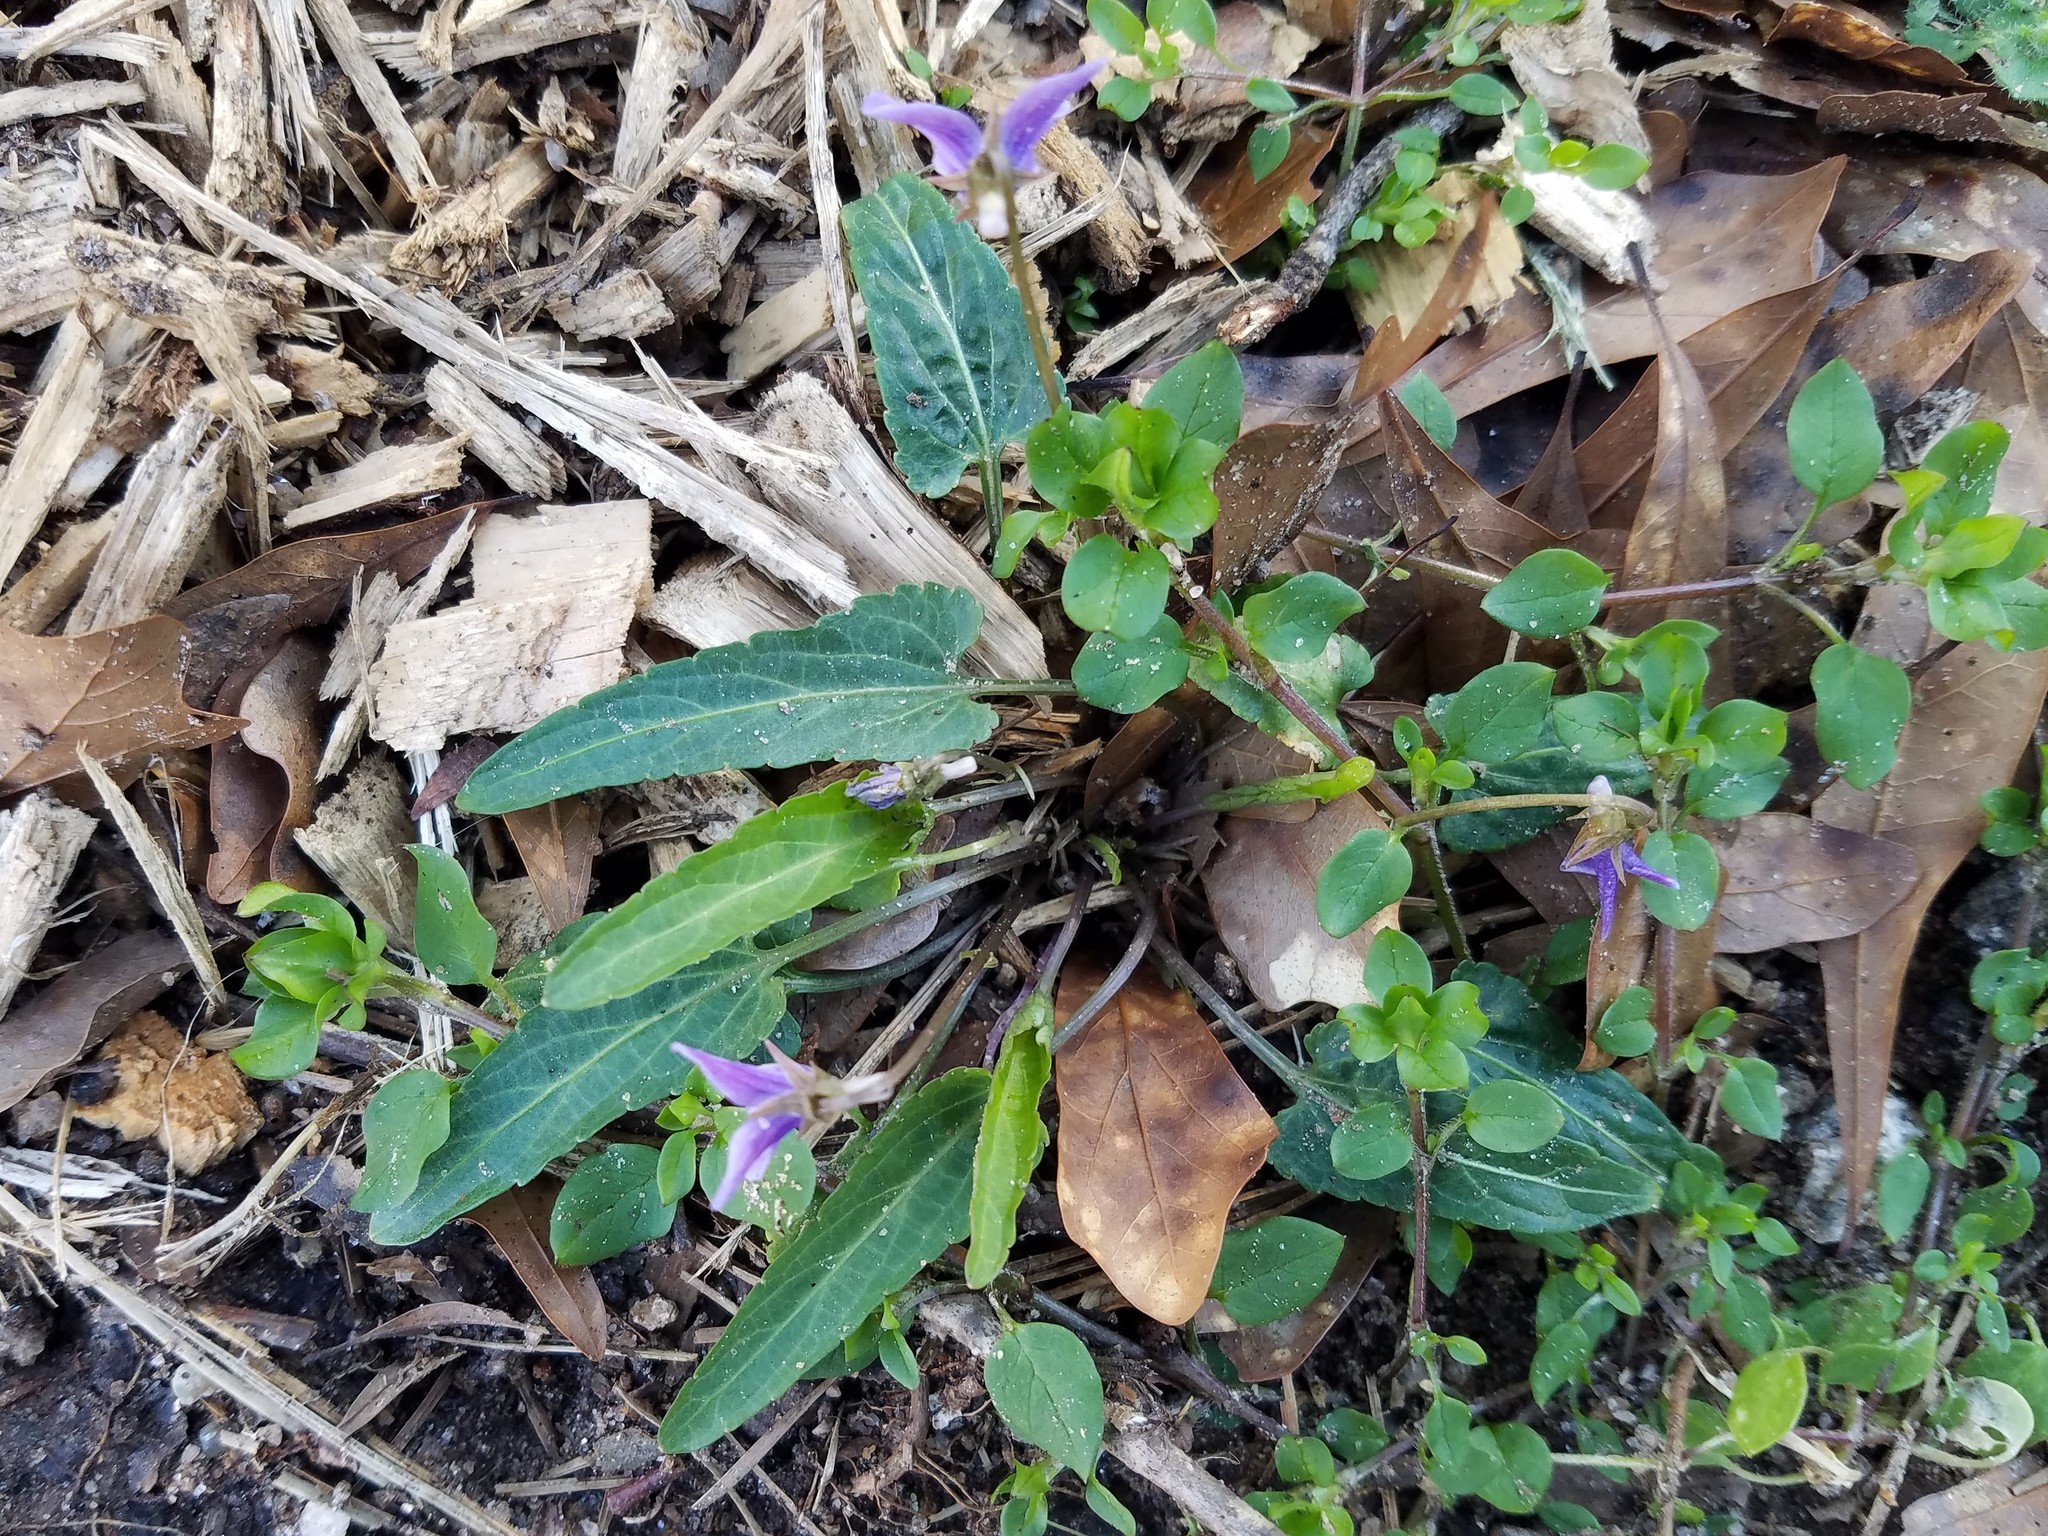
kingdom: Plantae
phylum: Tracheophyta
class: Magnoliopsida
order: Malpighiales
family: Violaceae
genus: Viola
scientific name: Viola sagittata
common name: Arrowhead violet
